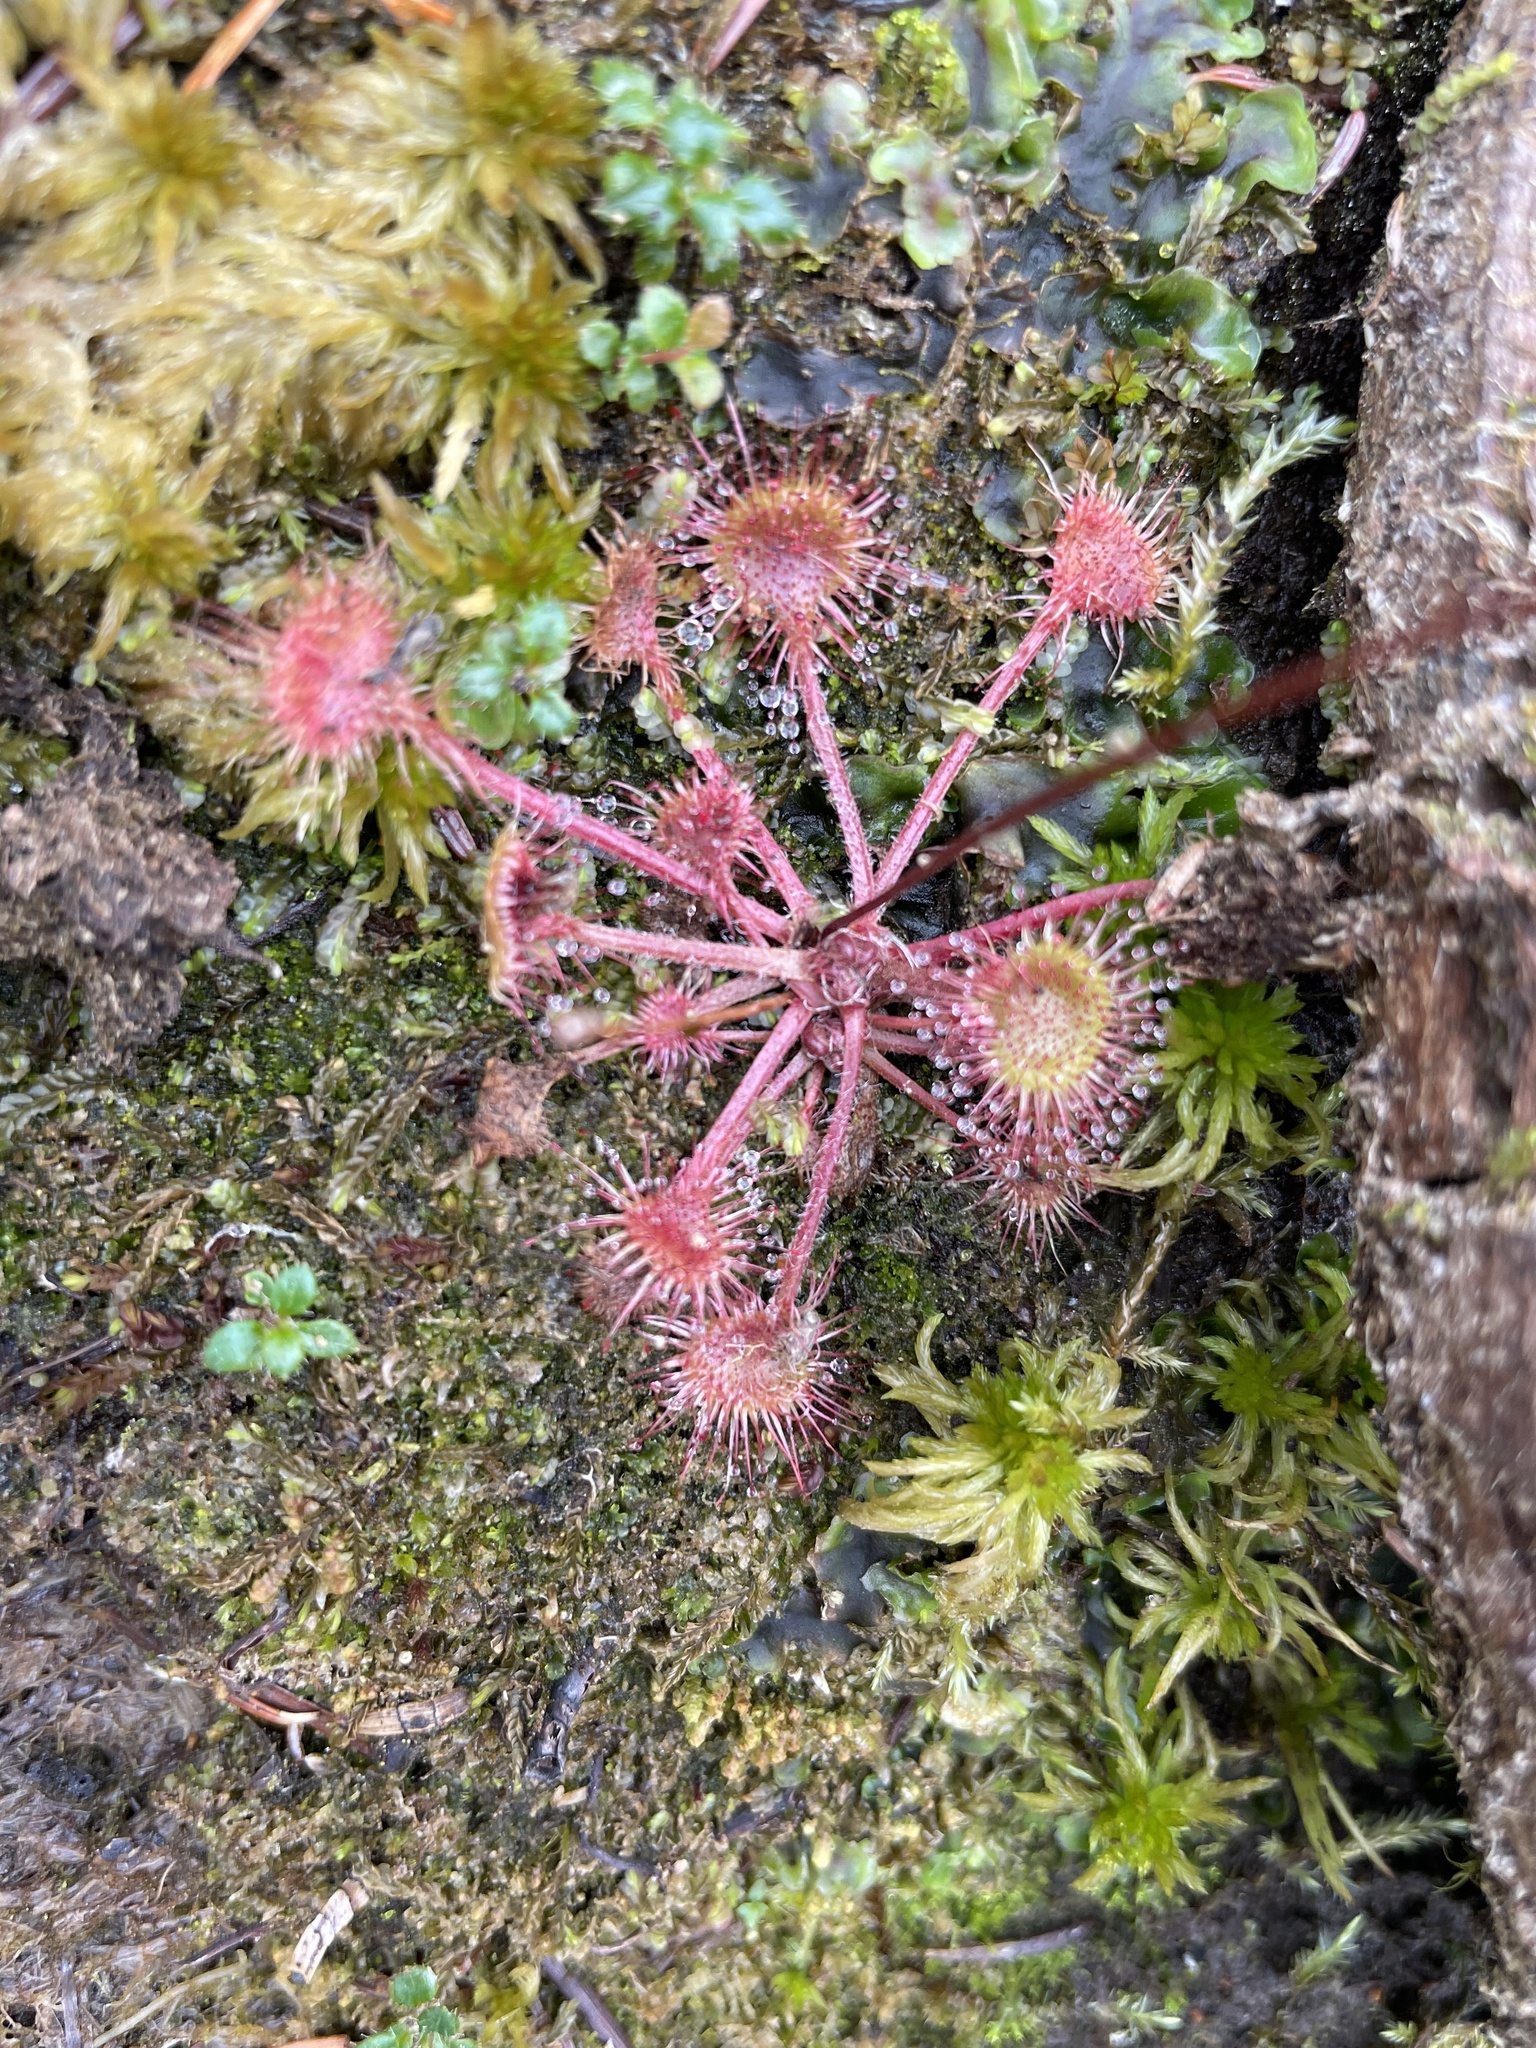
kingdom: Plantae
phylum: Tracheophyta
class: Magnoliopsida
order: Caryophyllales
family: Droseraceae
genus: Drosera
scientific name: Drosera rotundifolia
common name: Round-leaved sundew
